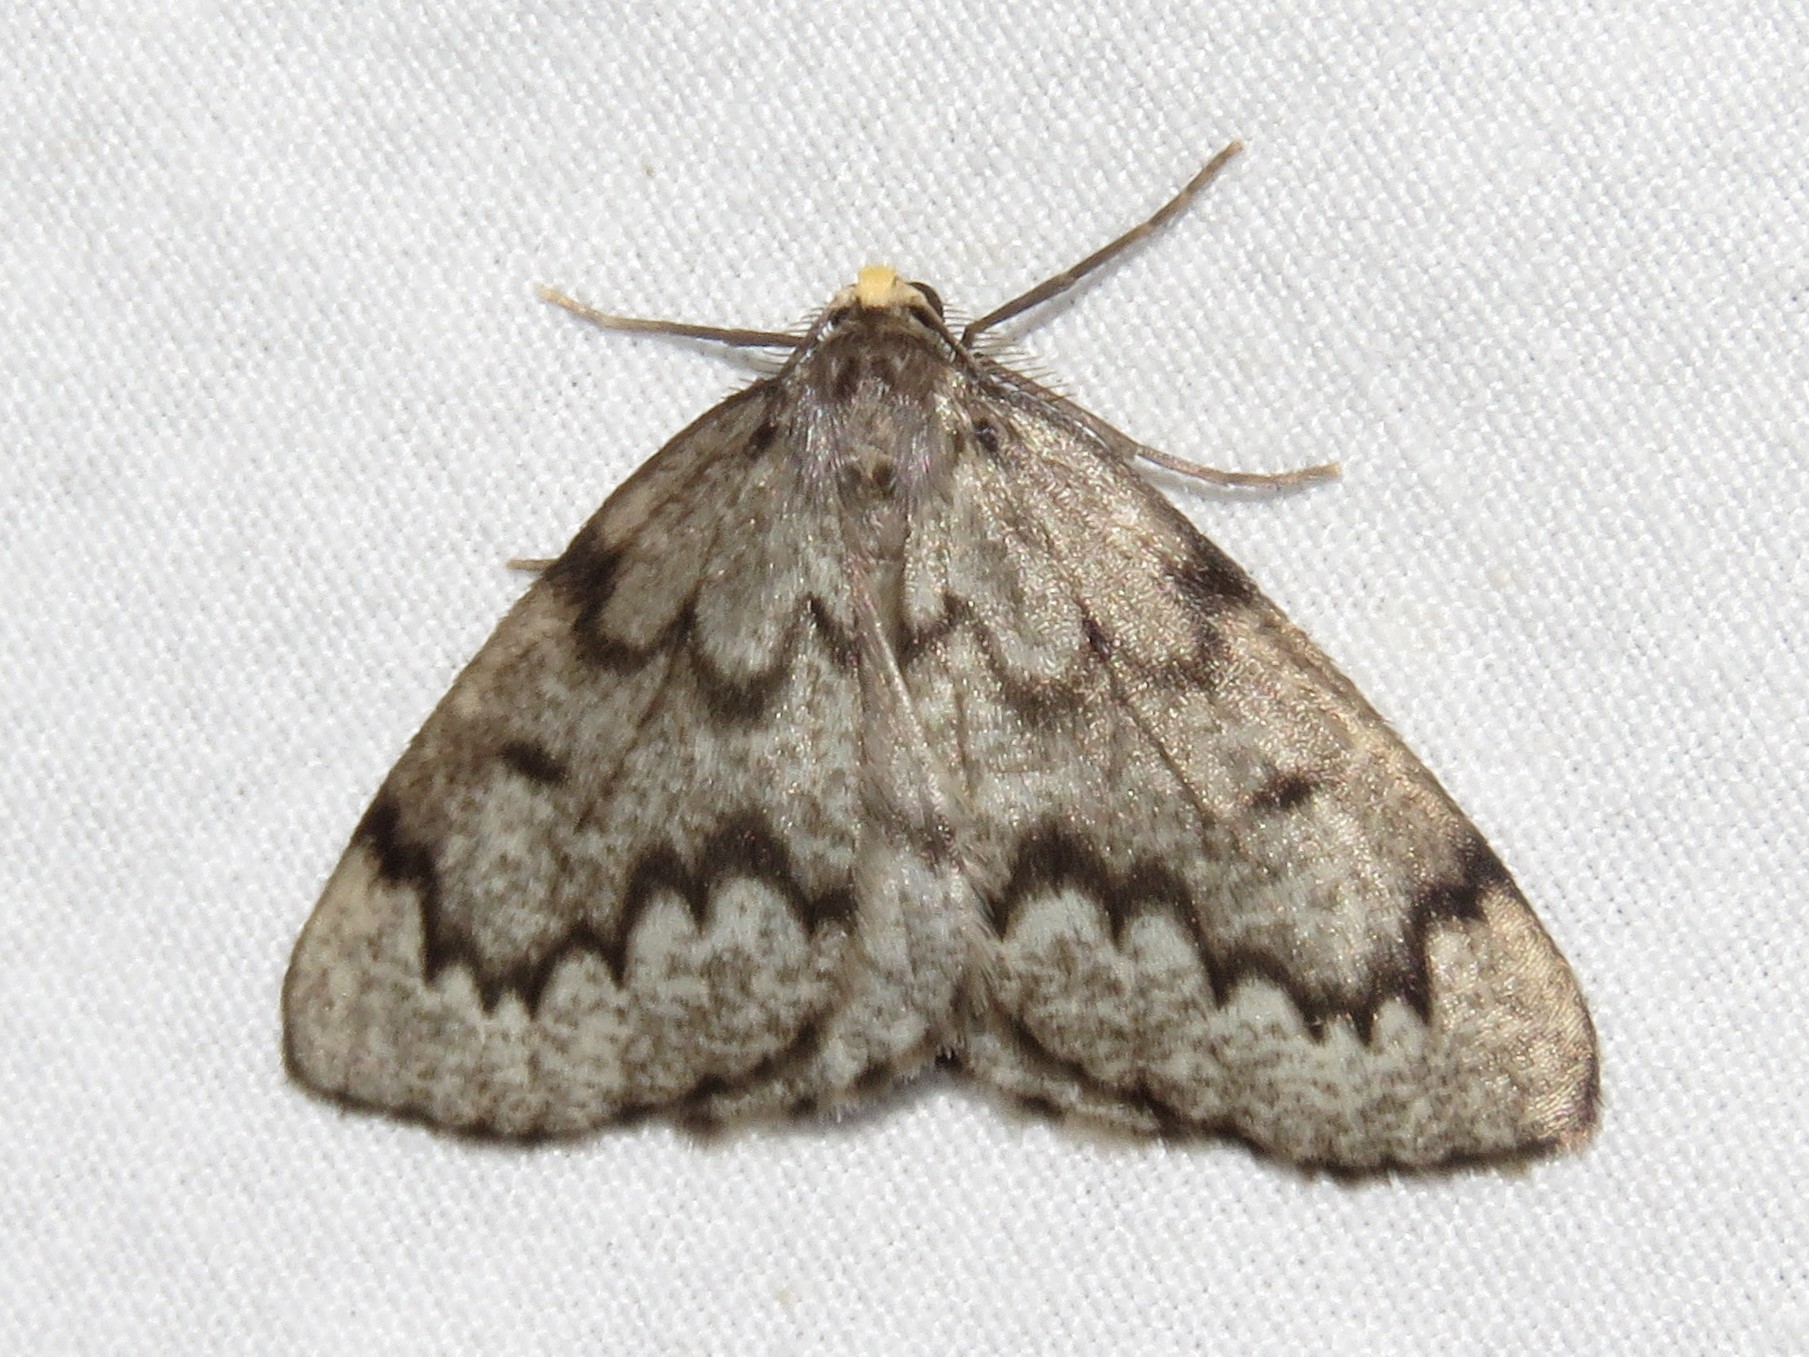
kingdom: Animalia
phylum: Arthropoda
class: Insecta
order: Lepidoptera
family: Geometridae
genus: Nepytia
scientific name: Nepytia canosaria
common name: False hemlock looper
